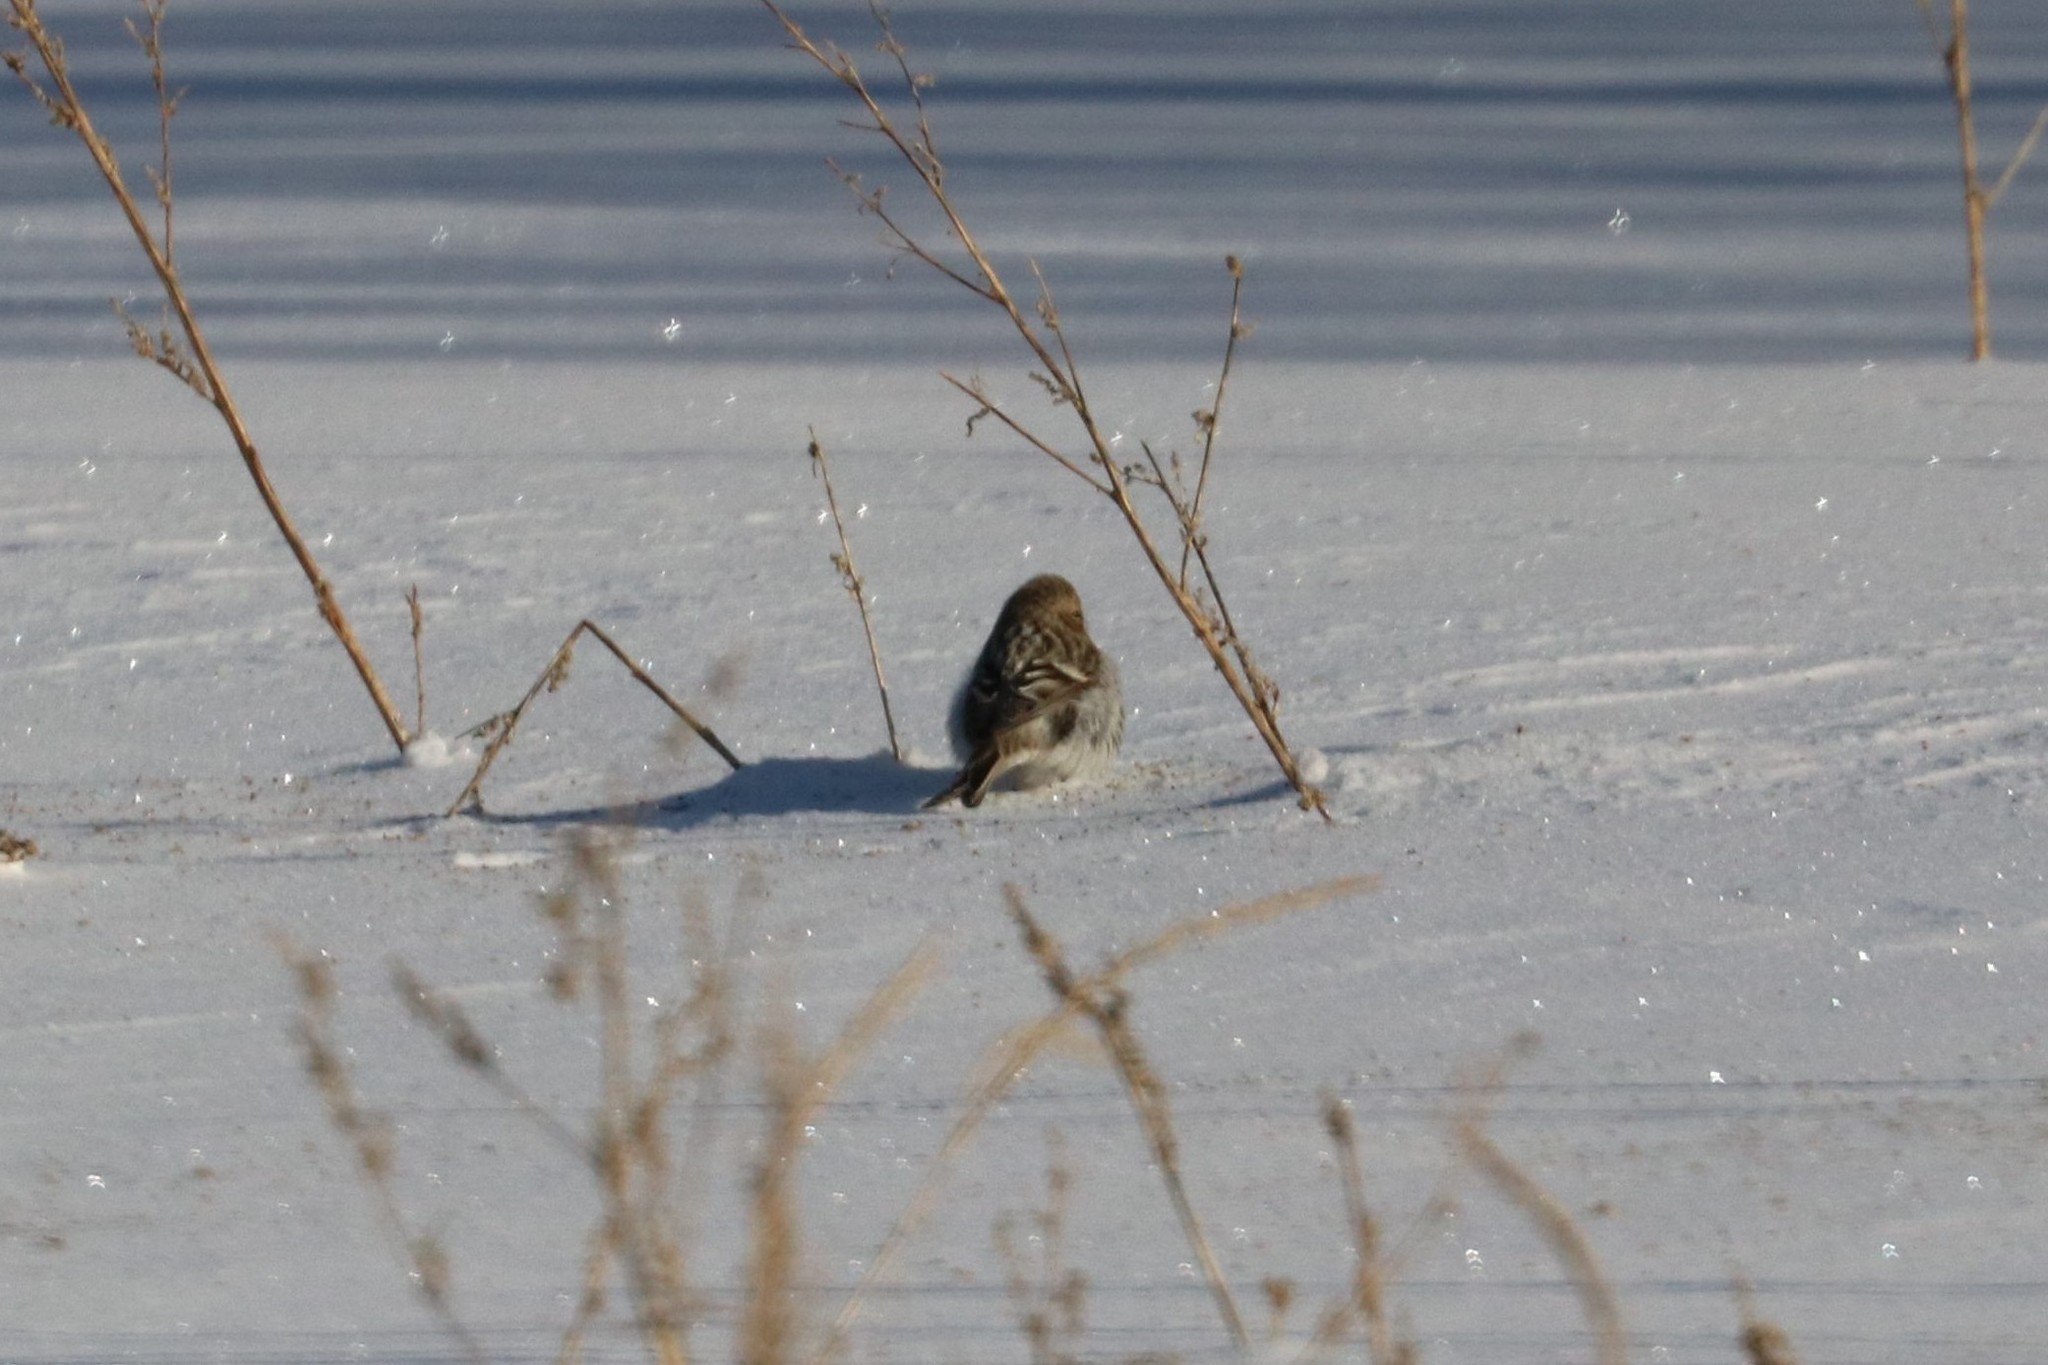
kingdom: Animalia
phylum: Chordata
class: Aves
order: Passeriformes
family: Fringillidae
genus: Acanthis
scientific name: Acanthis hornemanni
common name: Arctic redpoll
